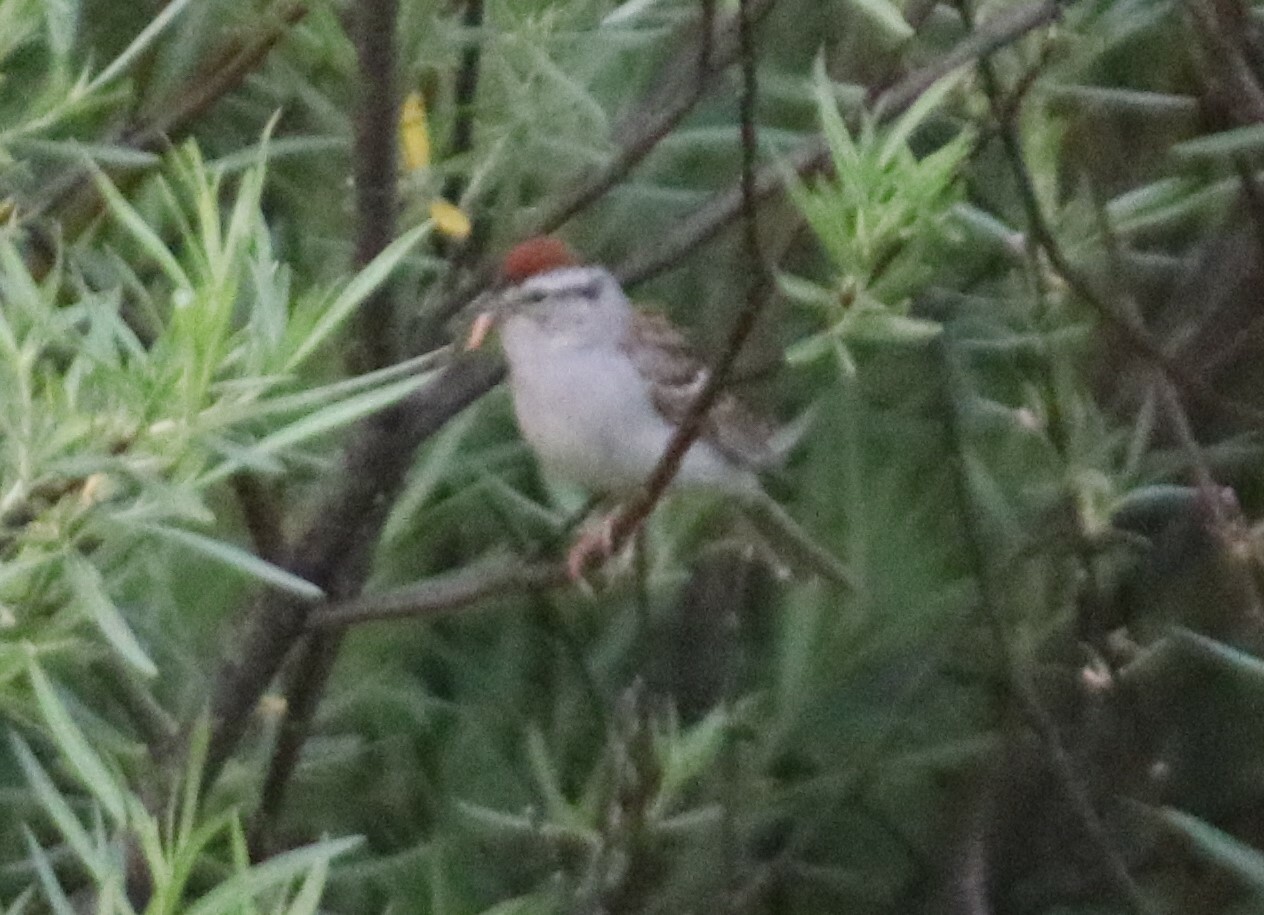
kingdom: Animalia
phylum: Chordata
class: Aves
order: Passeriformes
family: Passerellidae
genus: Spizella
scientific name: Spizella passerina
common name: Chipping sparrow
